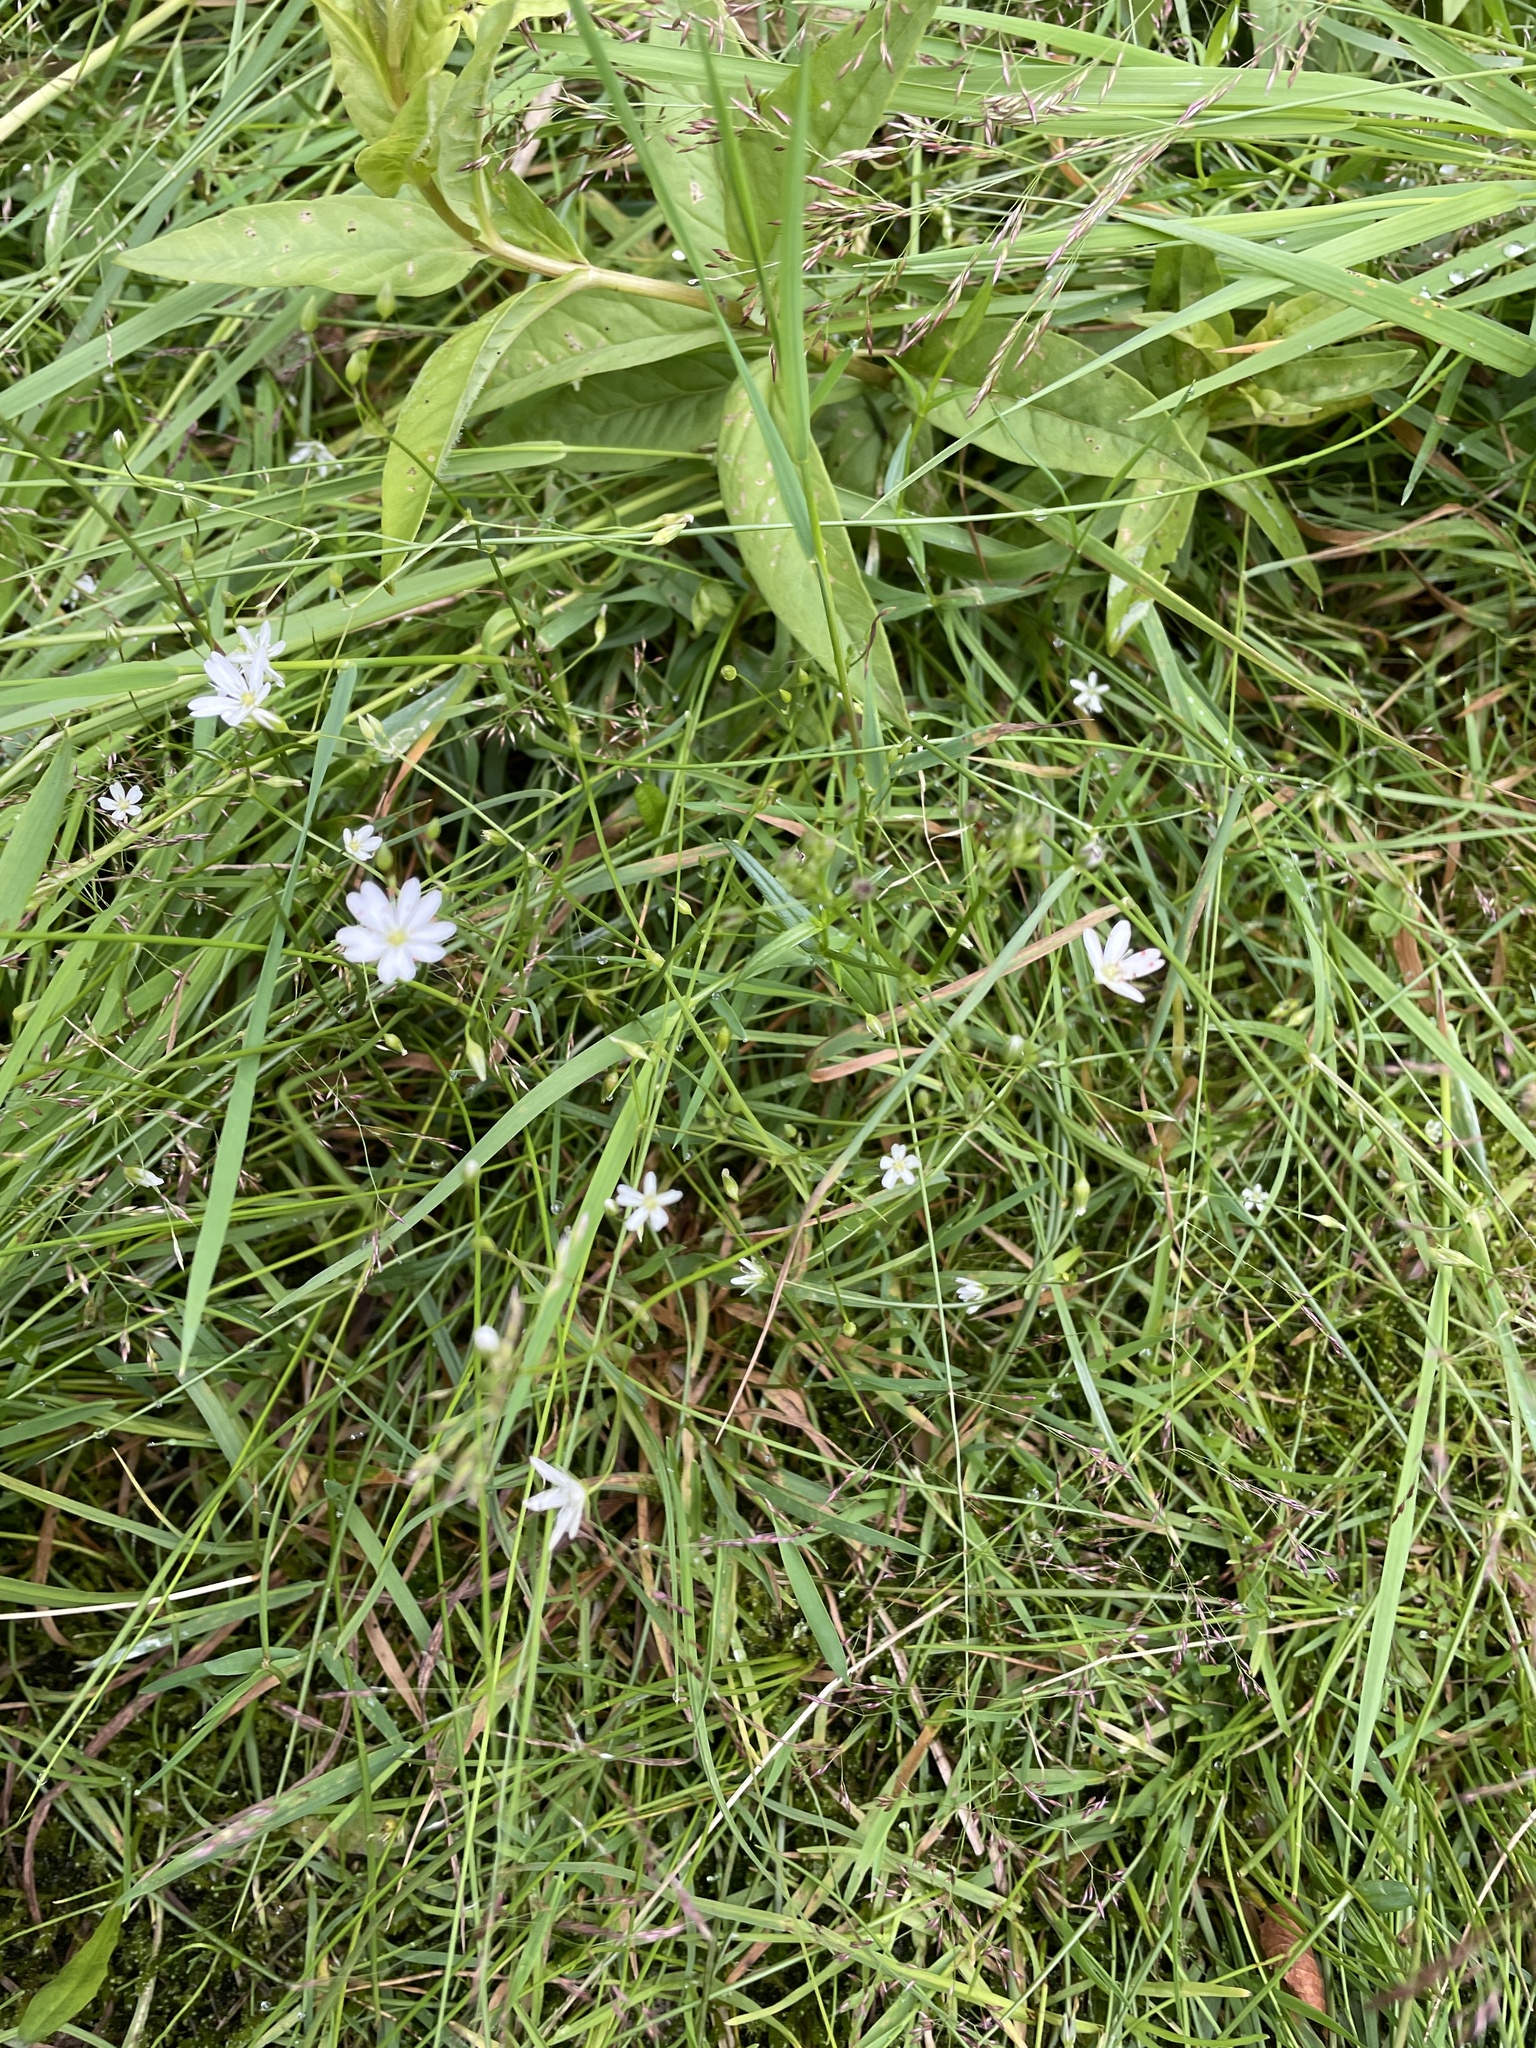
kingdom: Plantae
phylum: Tracheophyta
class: Magnoliopsida
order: Caryophyllales
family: Caryophyllaceae
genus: Stellaria
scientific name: Stellaria graminea
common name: Grass-like starwort
